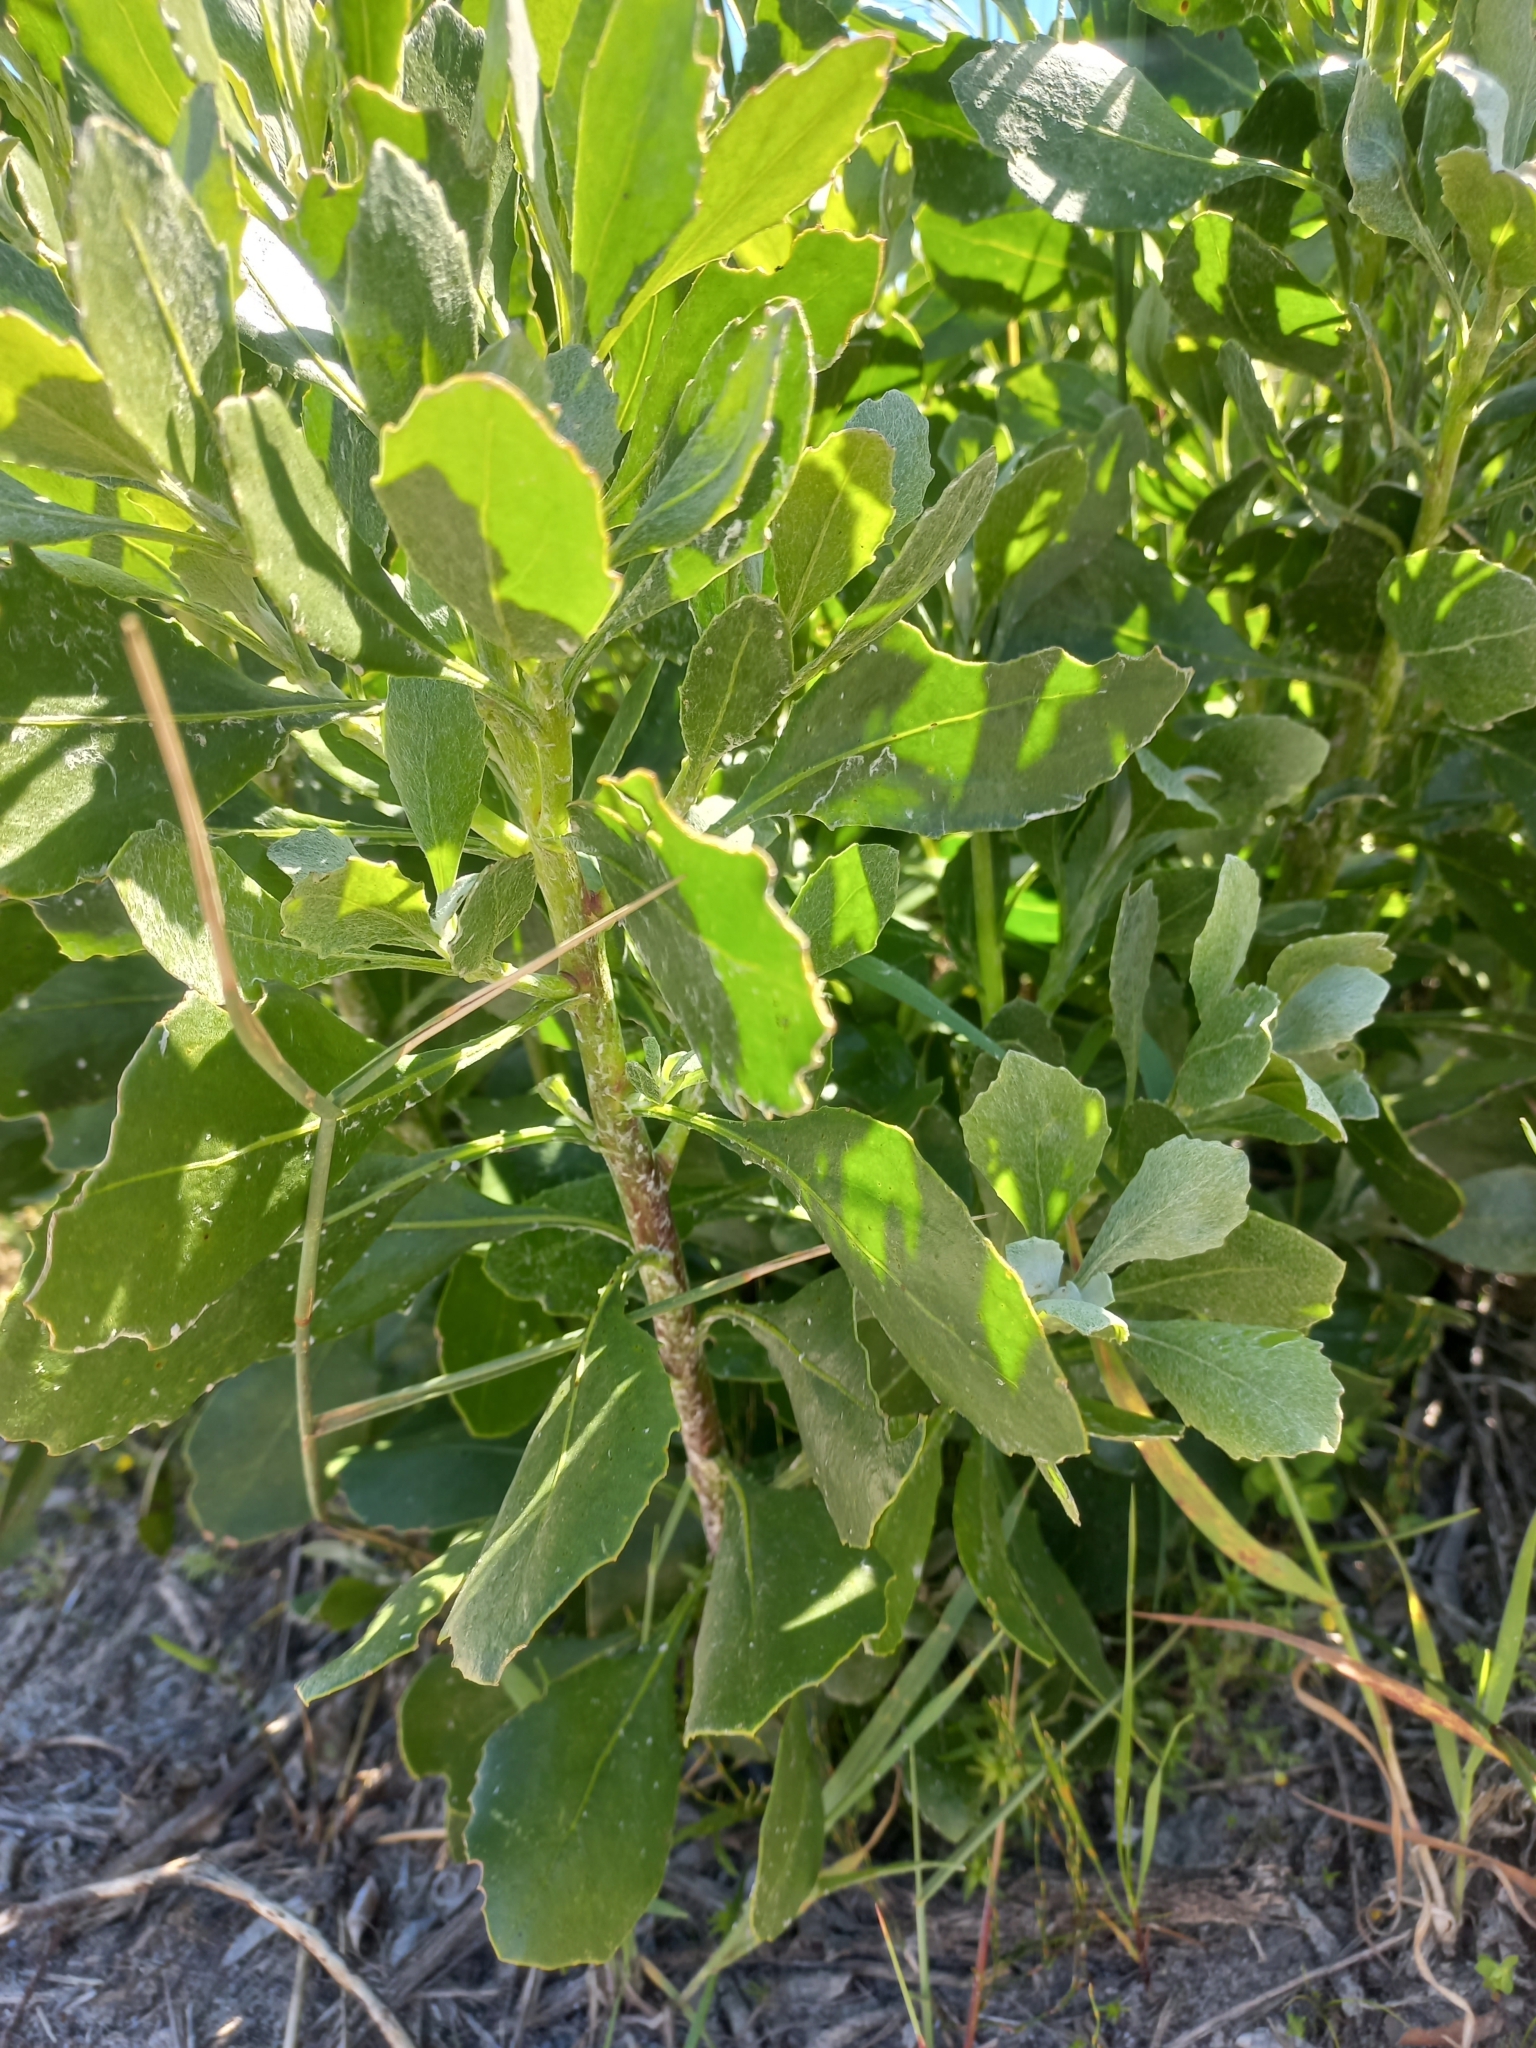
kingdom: Plantae
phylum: Tracheophyta
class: Magnoliopsida
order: Asterales
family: Asteraceae
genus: Osteospermum
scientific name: Osteospermum moniliferum
